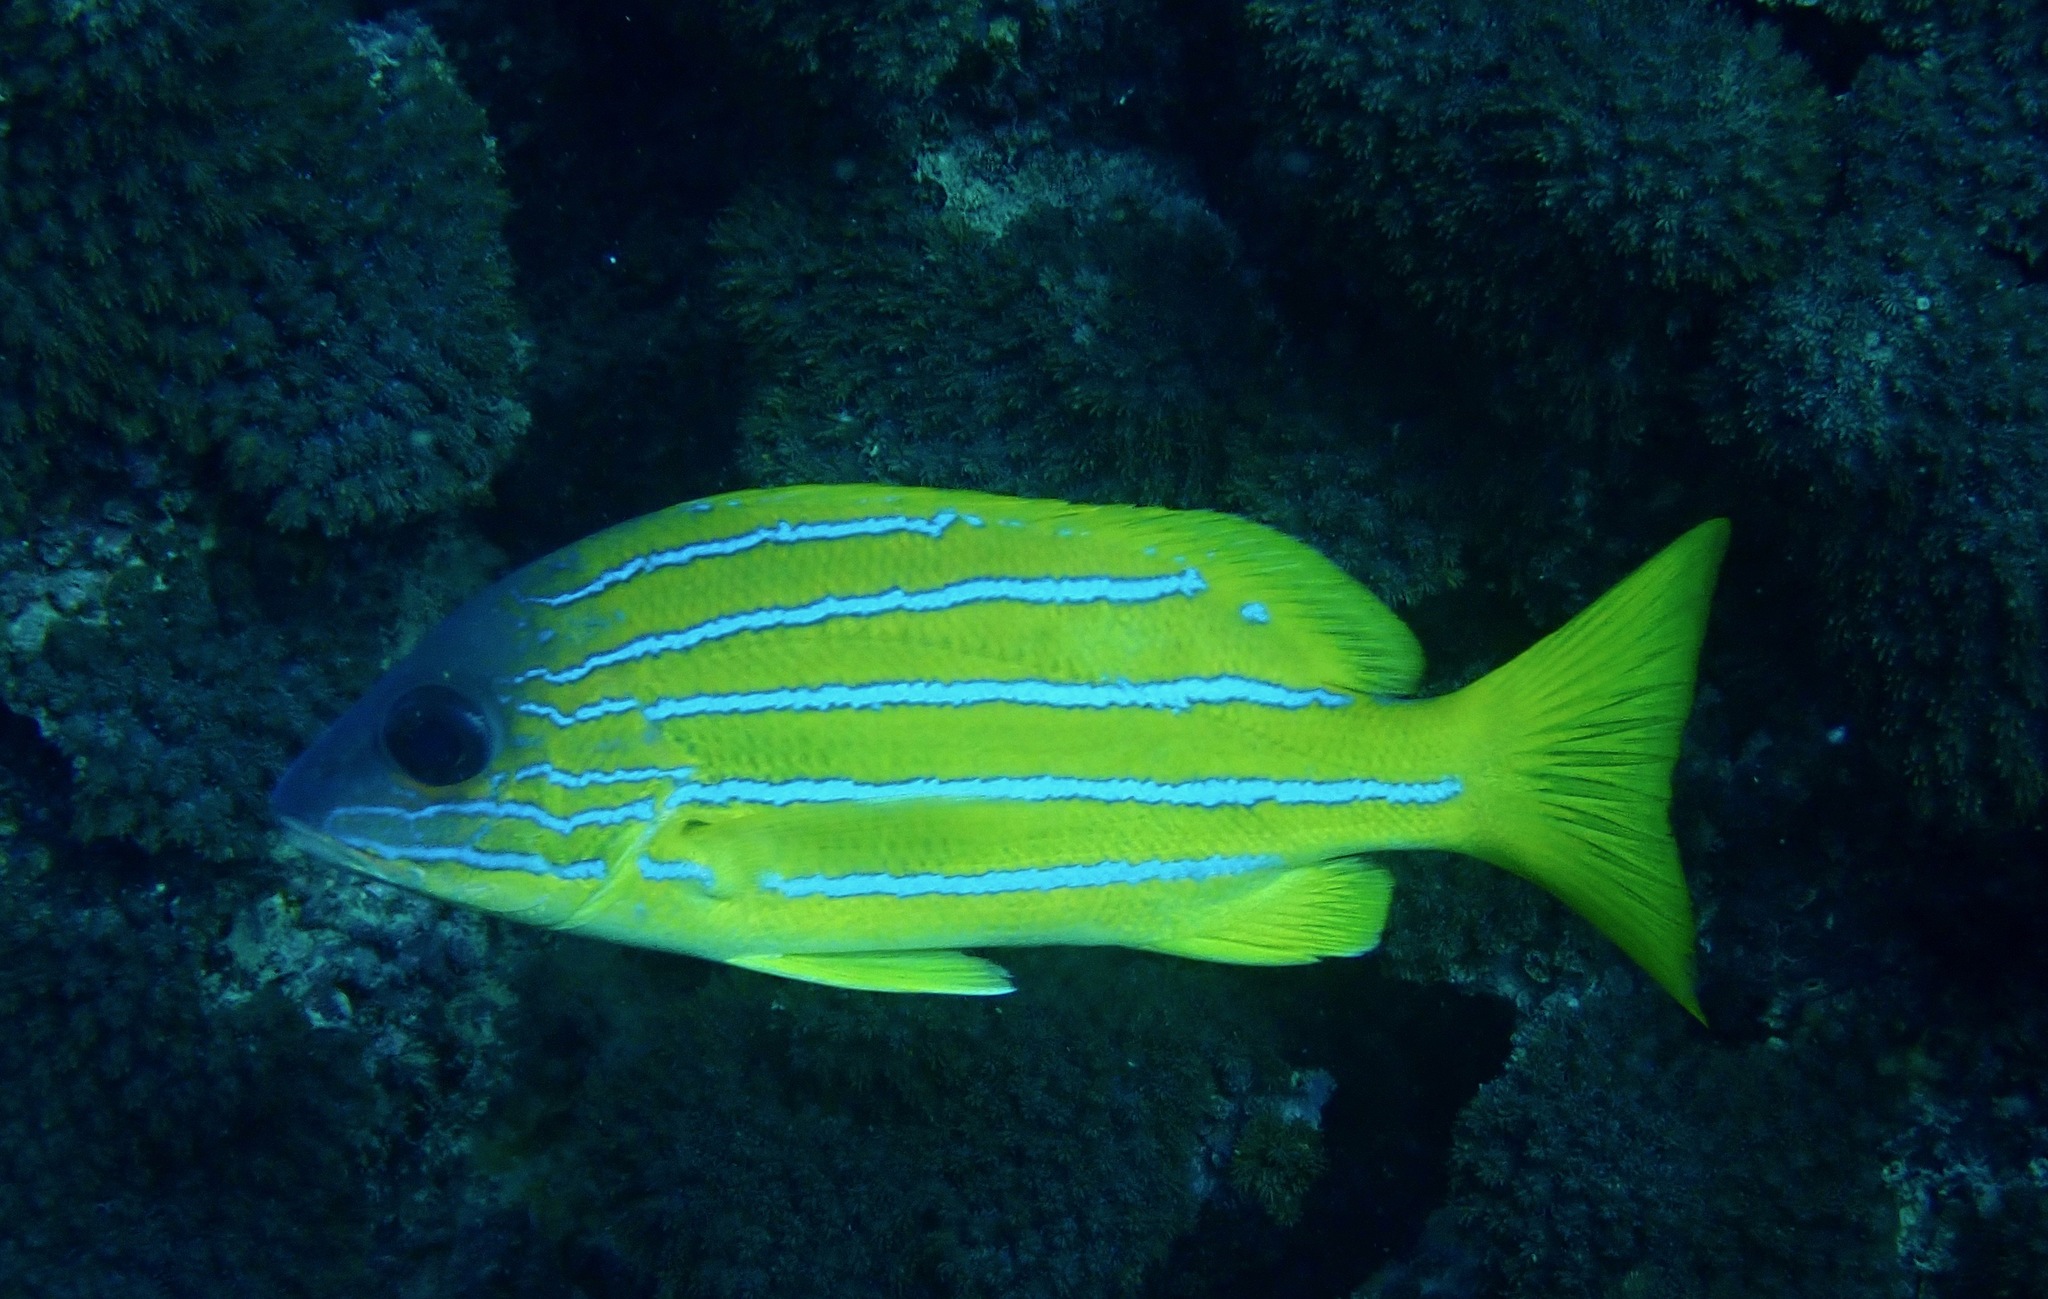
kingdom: Animalia
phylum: Chordata
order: Perciformes
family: Lutjanidae
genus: Lutjanus
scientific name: Lutjanus quinquelineatus
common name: Five-lined snapper
